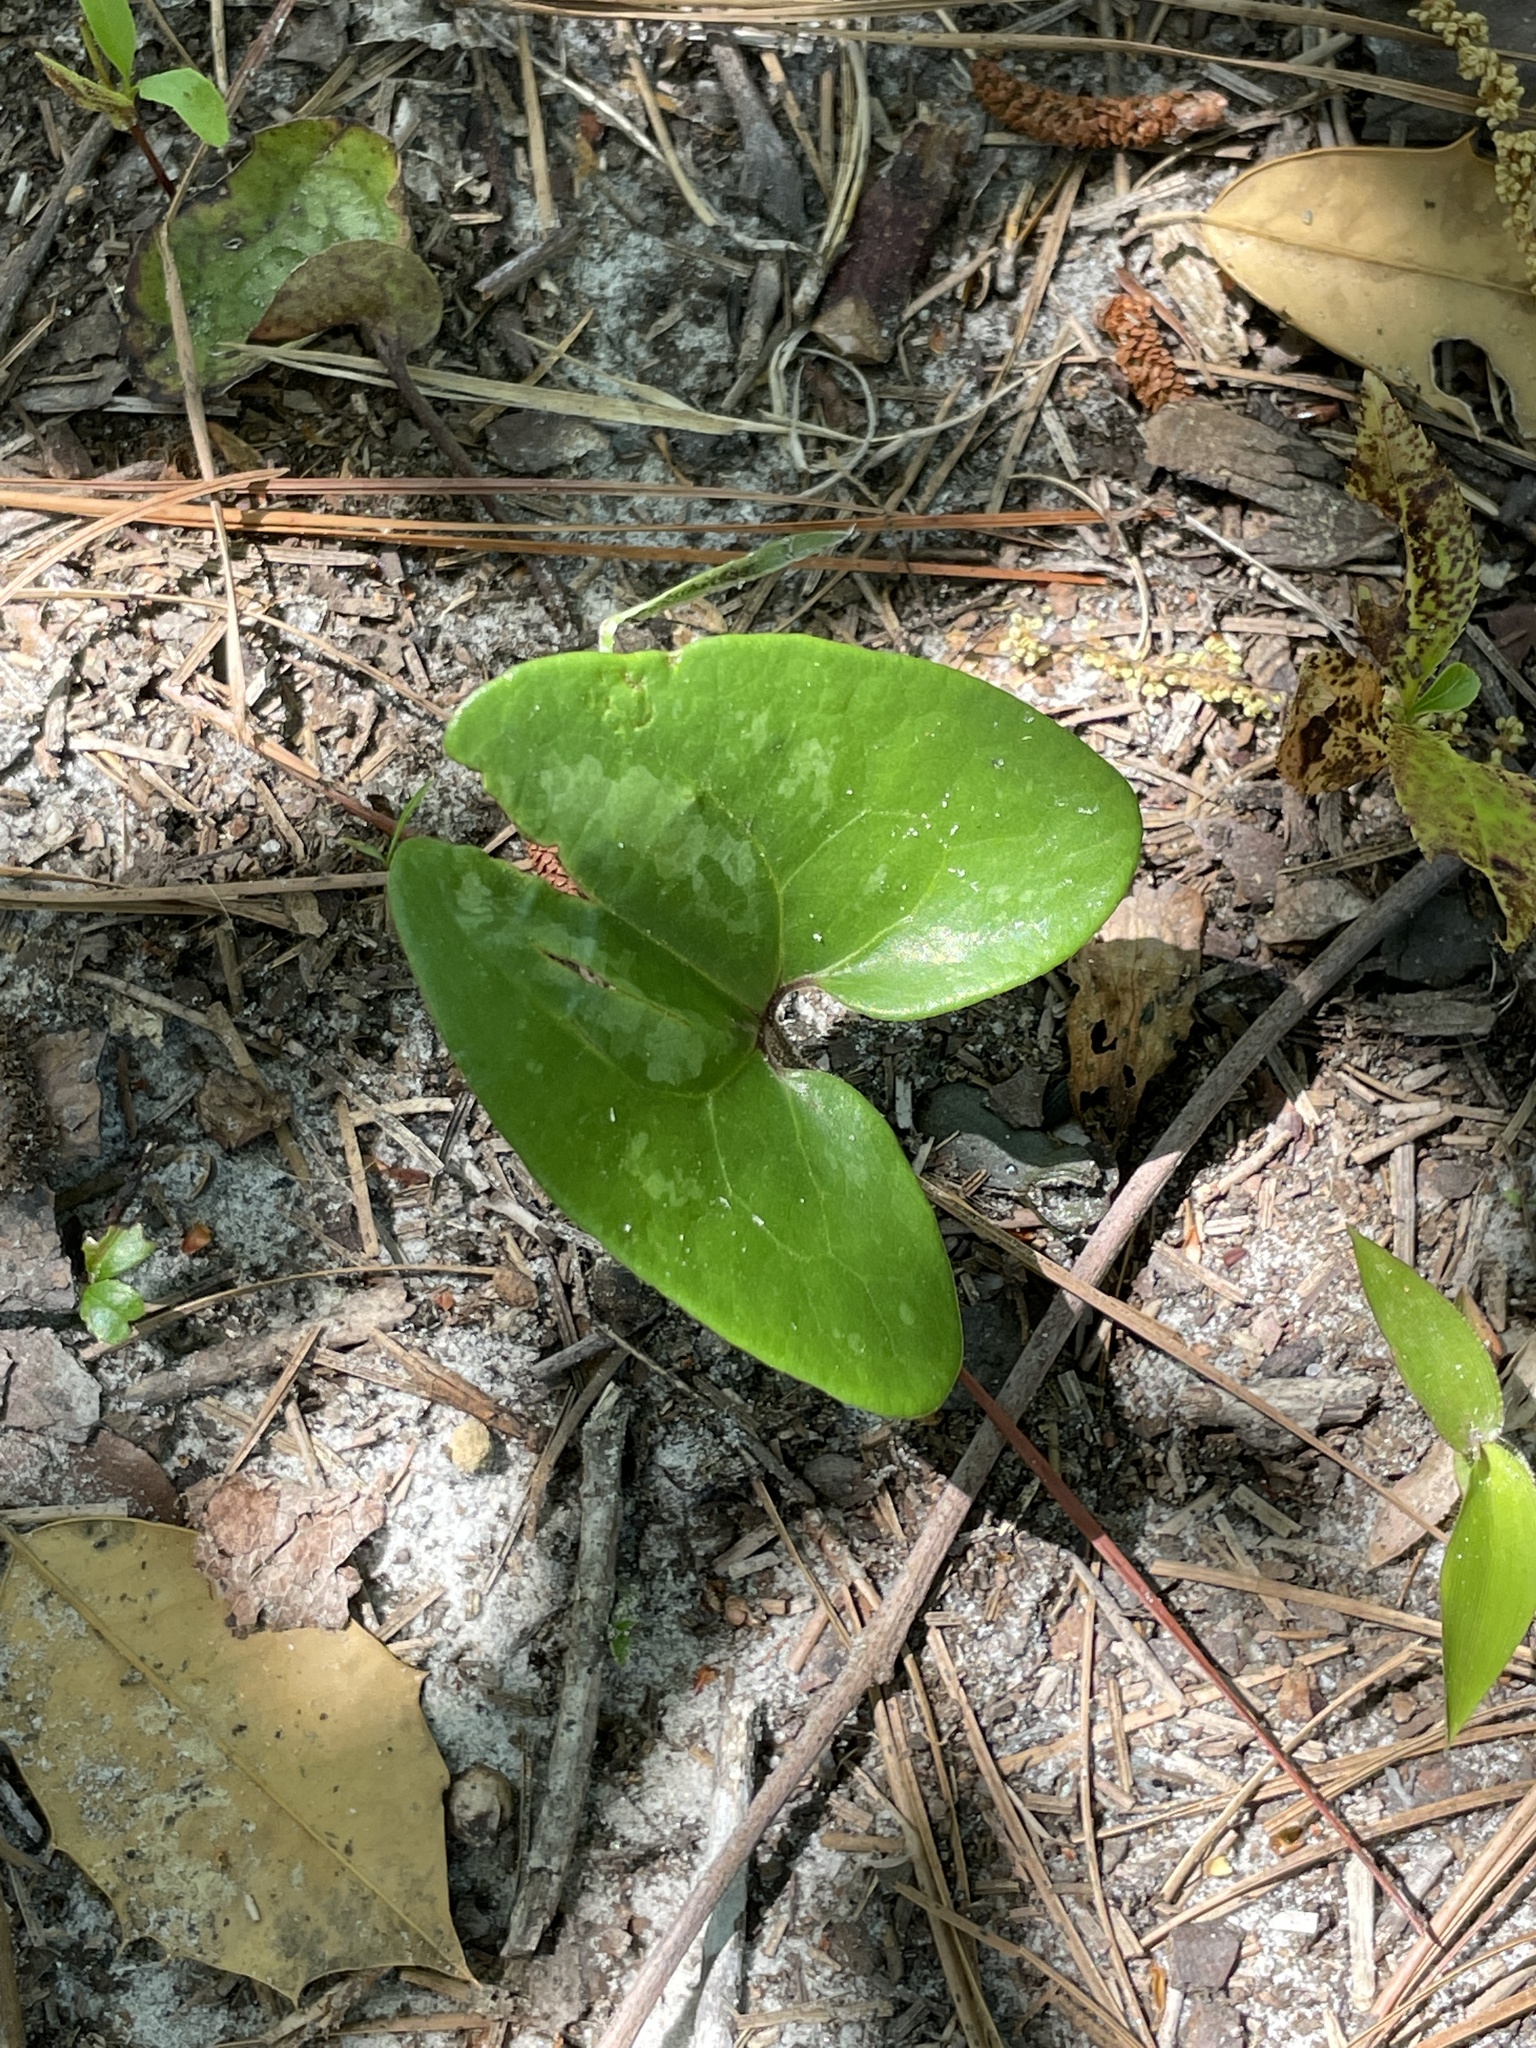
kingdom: Plantae
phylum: Tracheophyta
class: Magnoliopsida
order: Piperales
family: Aristolochiaceae
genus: Hexastylis
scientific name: Hexastylis arifolia
